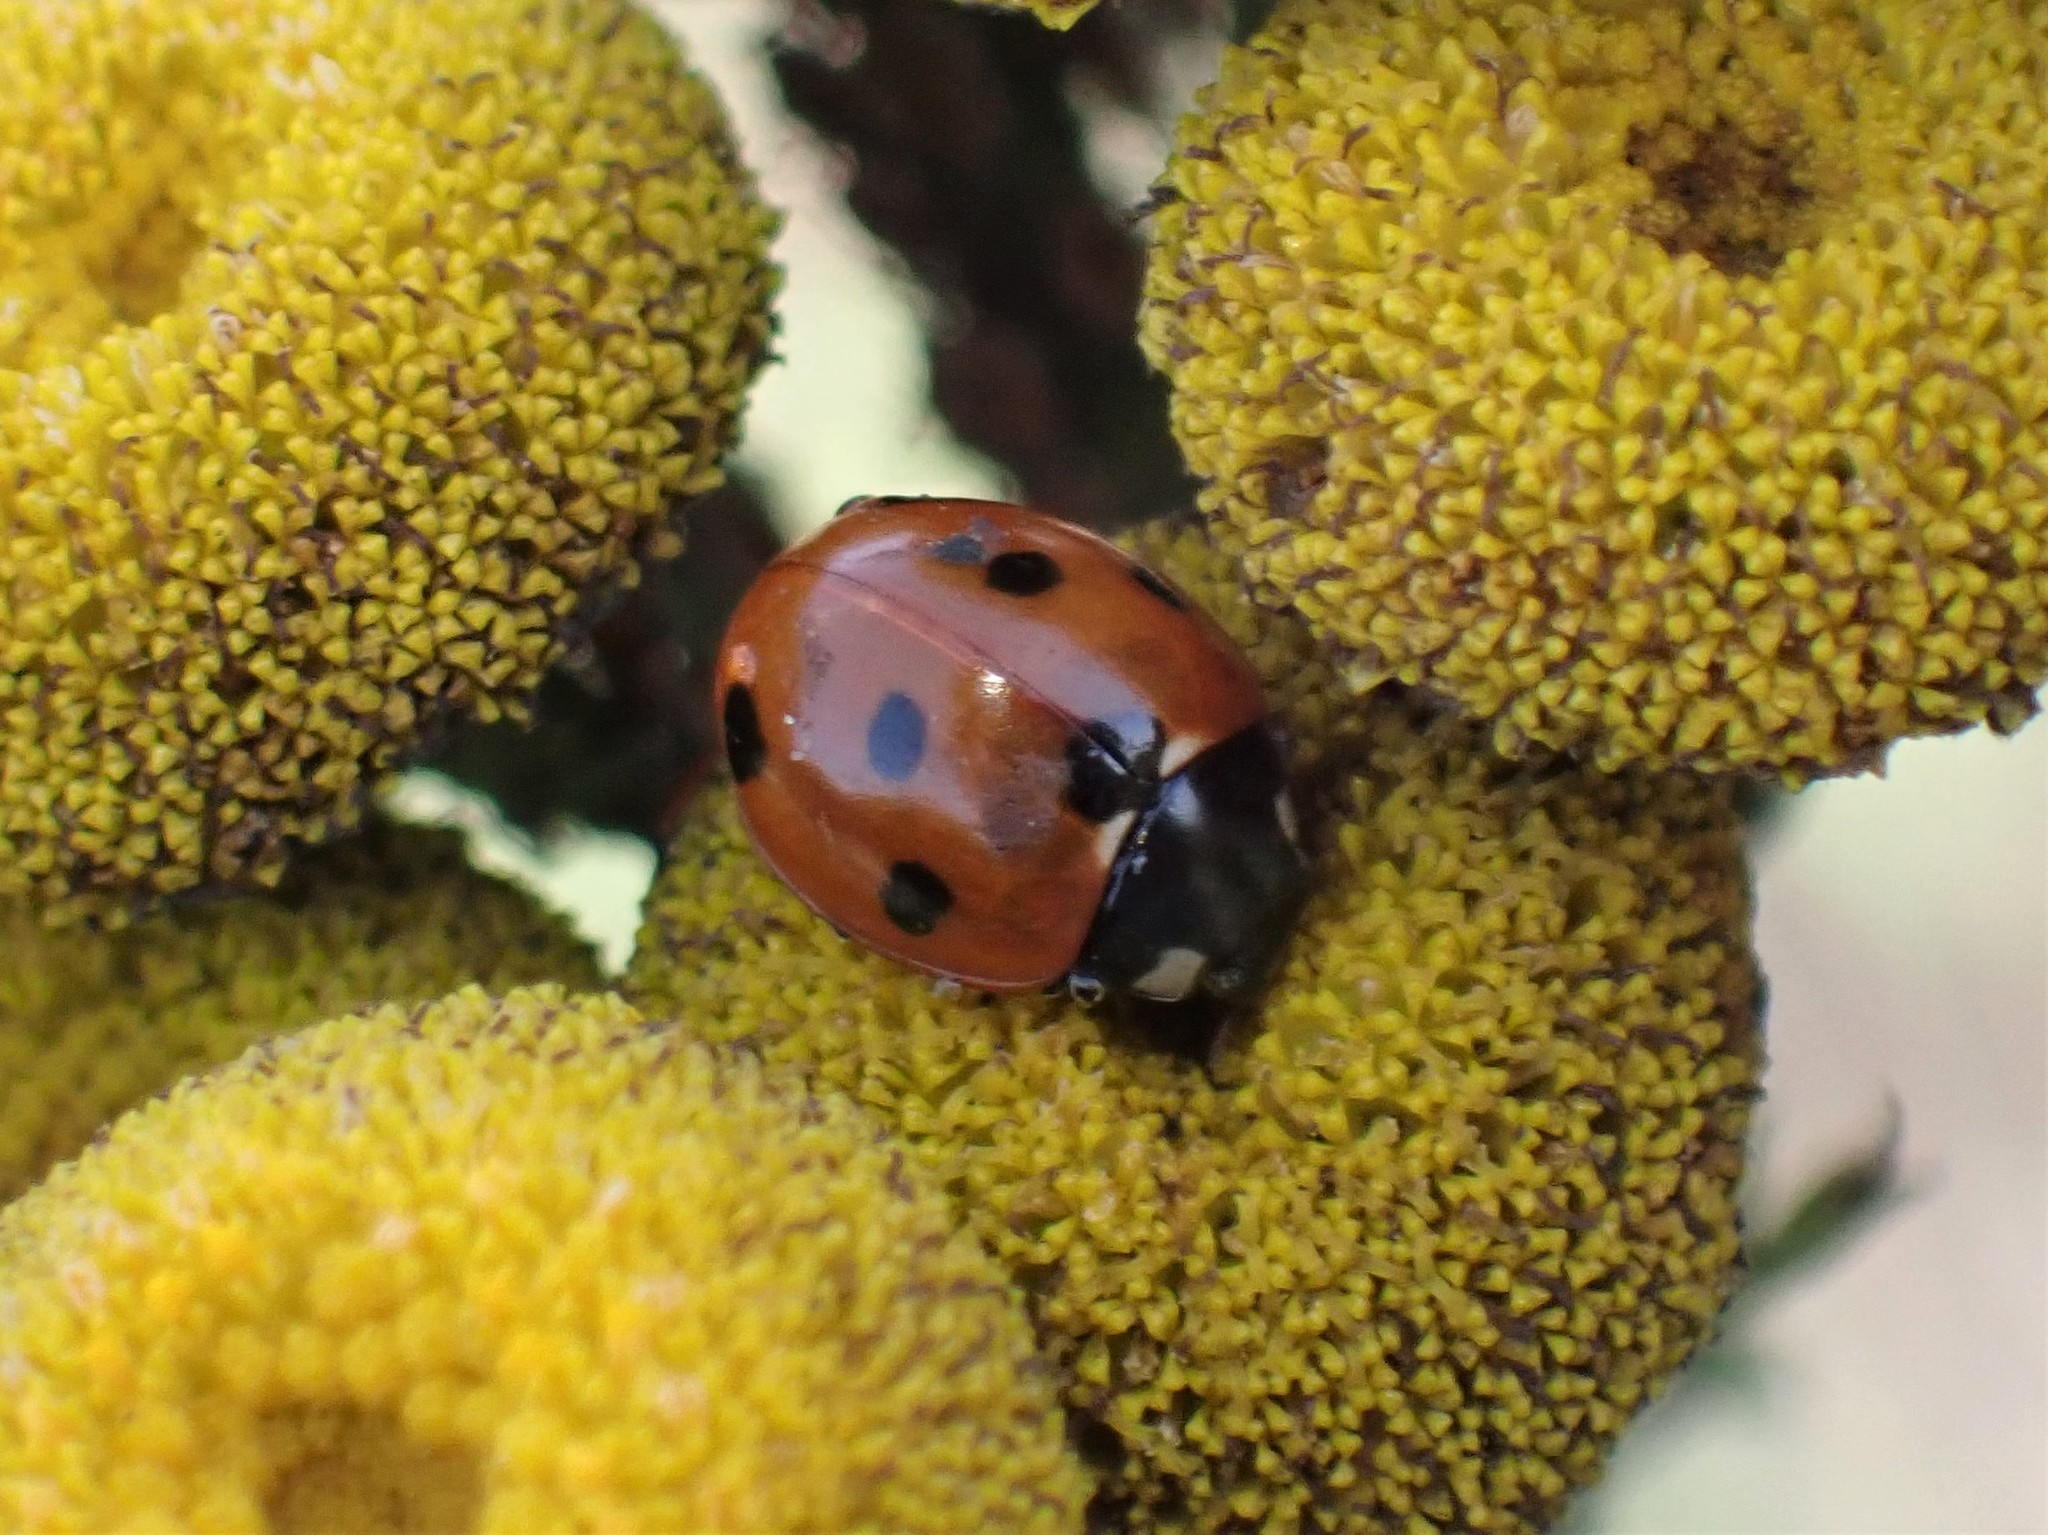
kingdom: Animalia
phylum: Arthropoda
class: Insecta
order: Coleoptera
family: Coccinellidae
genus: Coccinella
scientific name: Coccinella septempunctata
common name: Sevenspotted lady beetle
